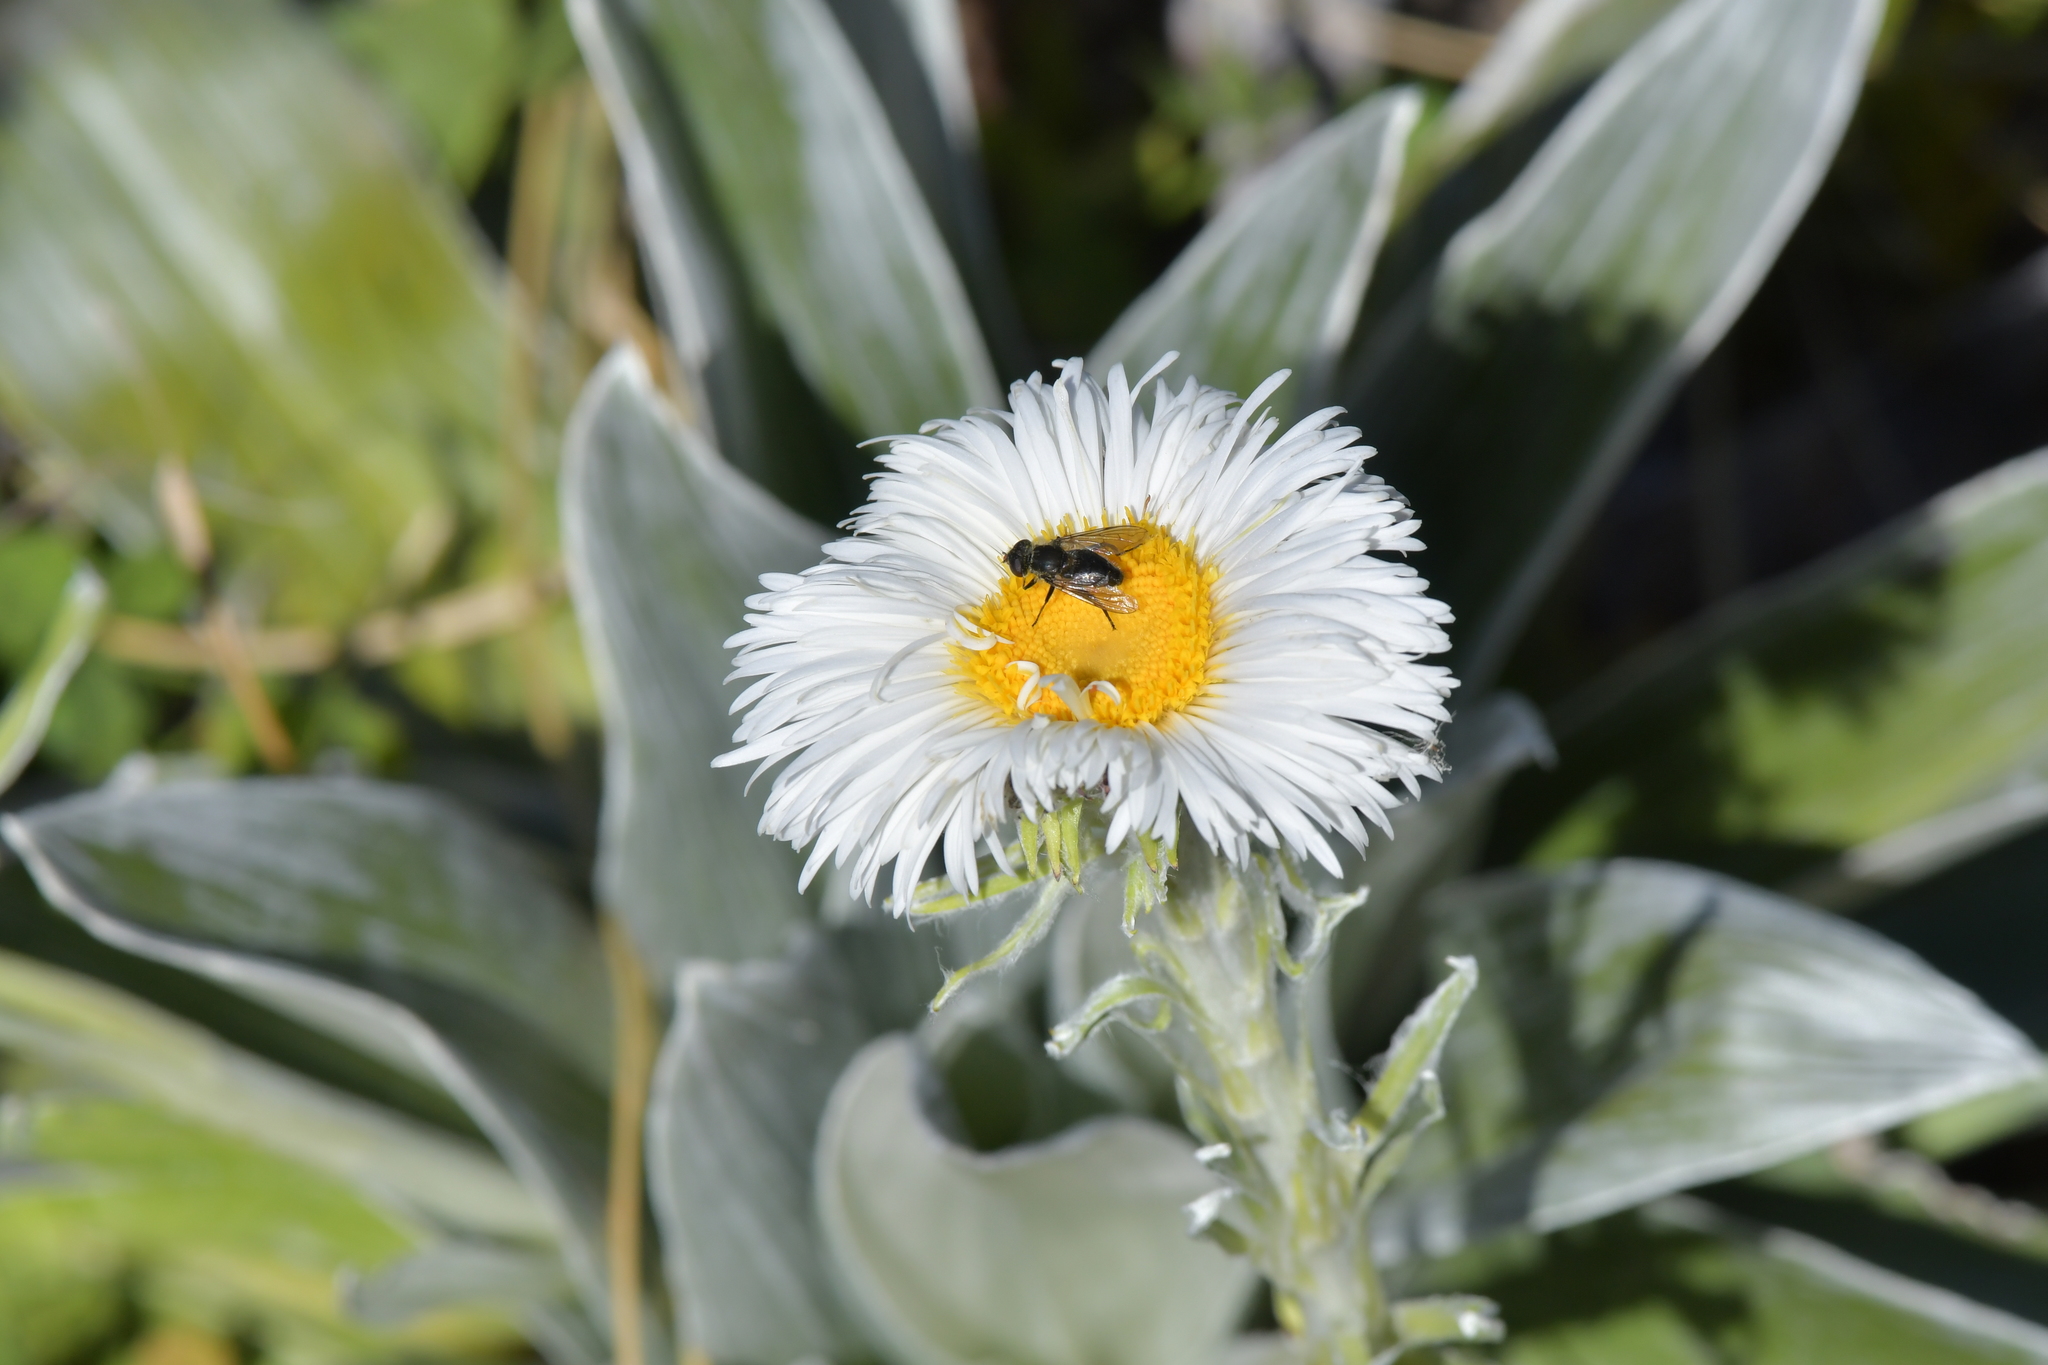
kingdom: Plantae
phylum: Tracheophyta
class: Magnoliopsida
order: Asterales
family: Asteraceae
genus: Celmisia
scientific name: Celmisia semicordata
